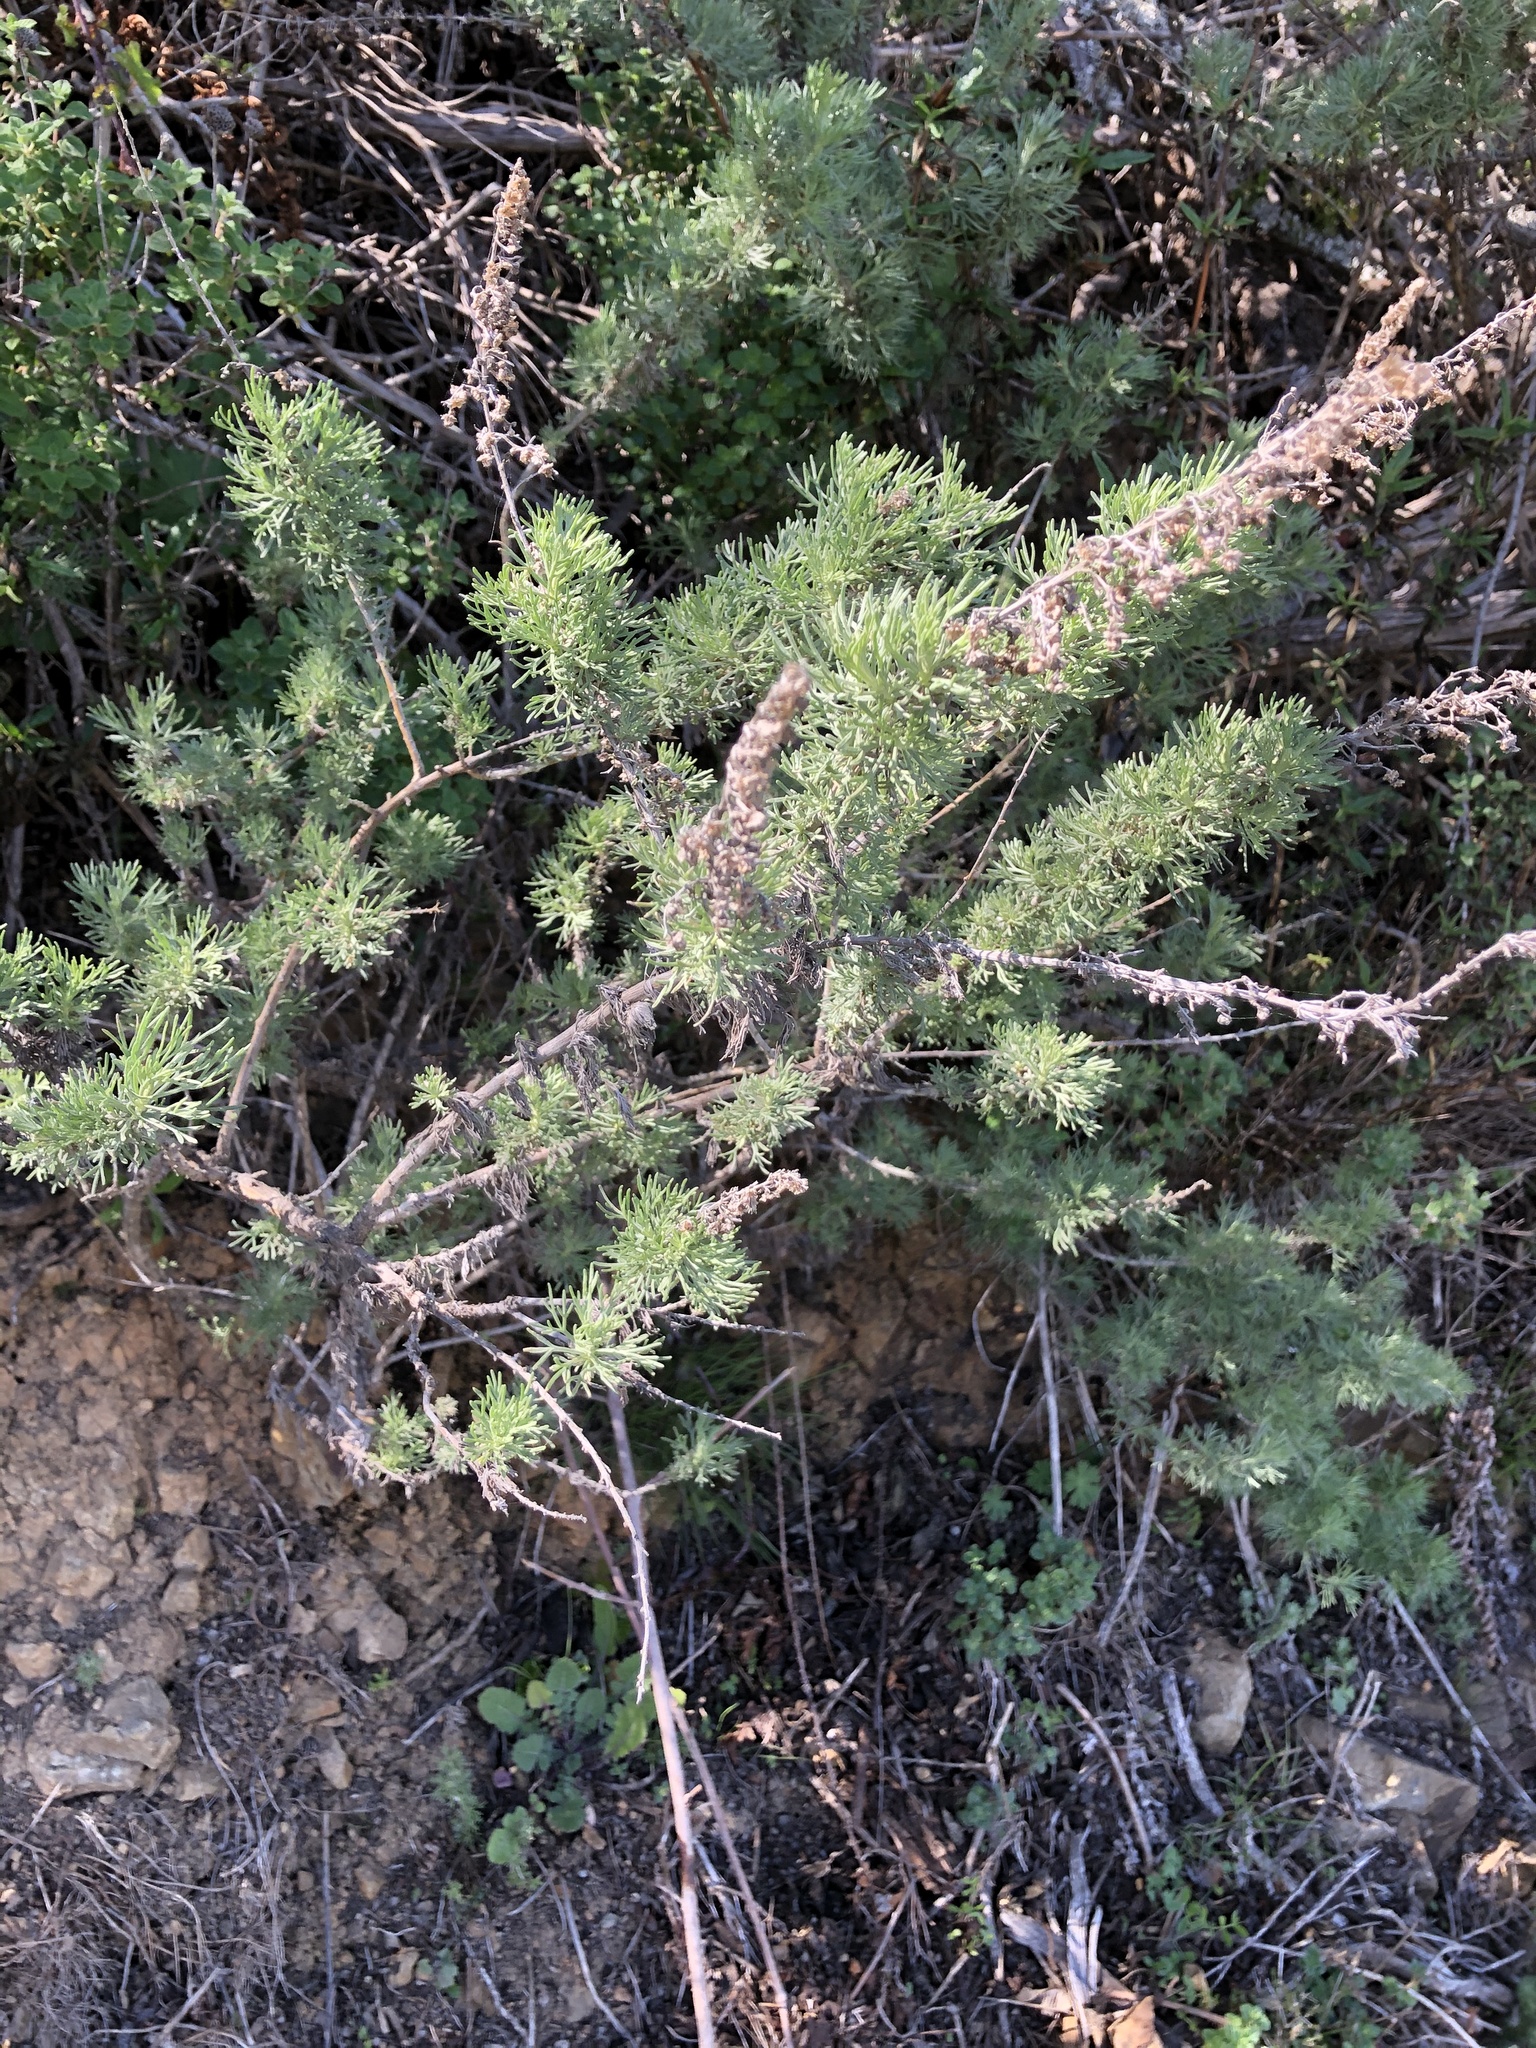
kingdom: Plantae
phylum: Tracheophyta
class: Magnoliopsida
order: Asterales
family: Asteraceae
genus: Artemisia
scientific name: Artemisia californica
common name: California sagebrush
